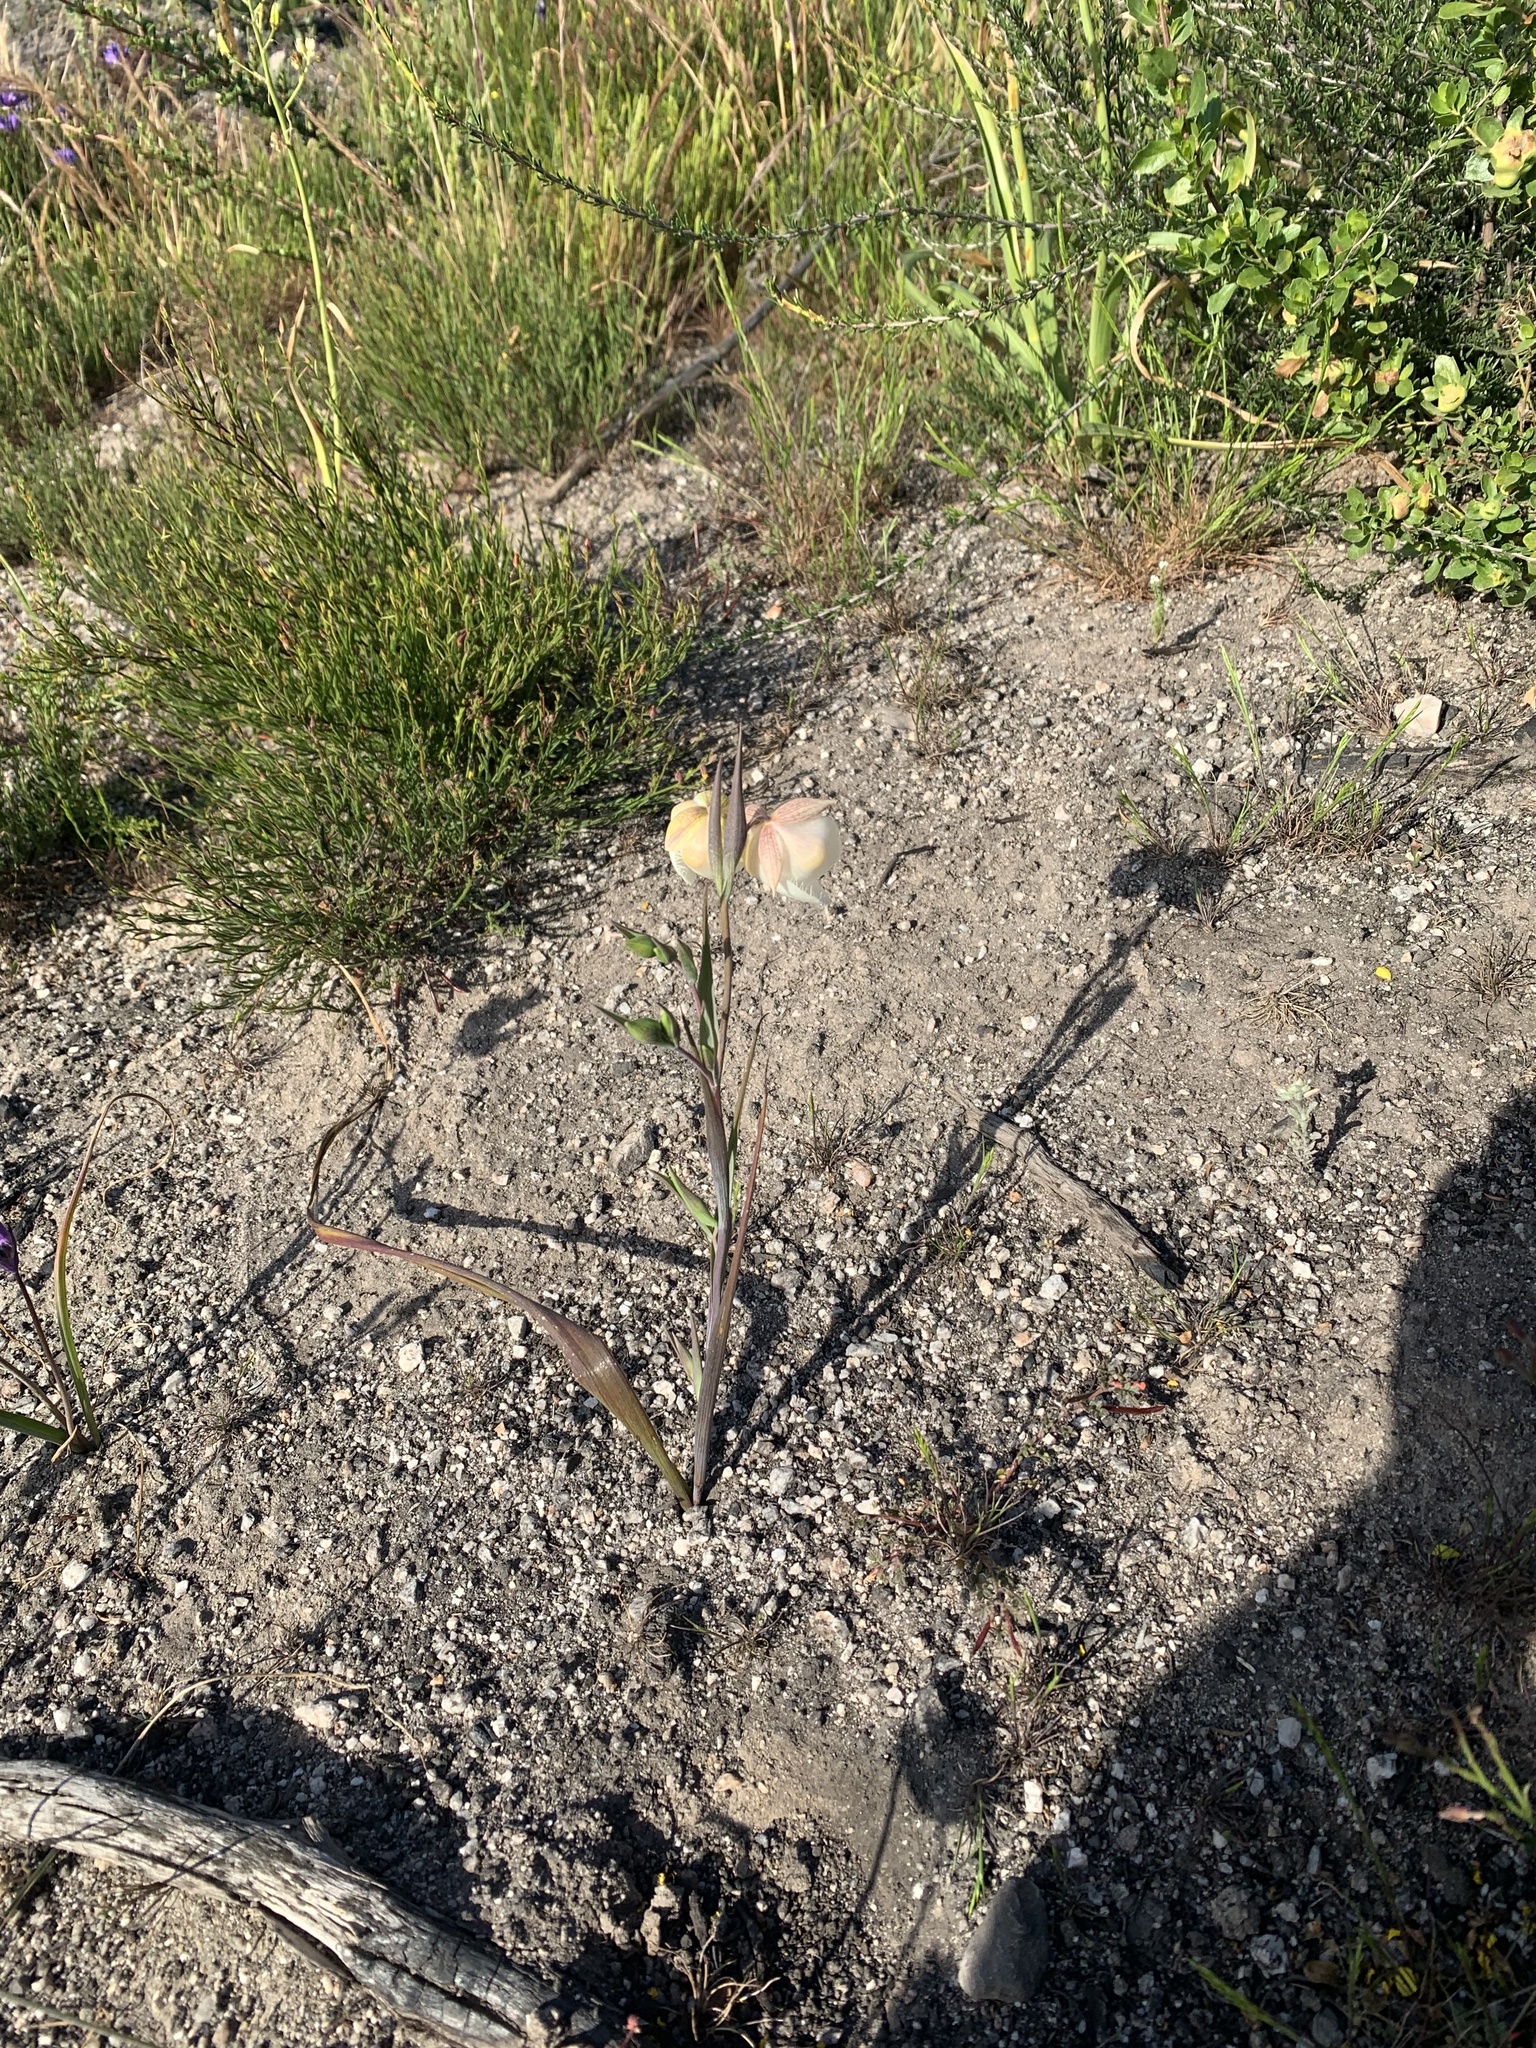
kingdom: Plantae
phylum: Tracheophyta
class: Liliopsida
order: Liliales
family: Liliaceae
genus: Calochortus
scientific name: Calochortus albus
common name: Fairy-lantern
